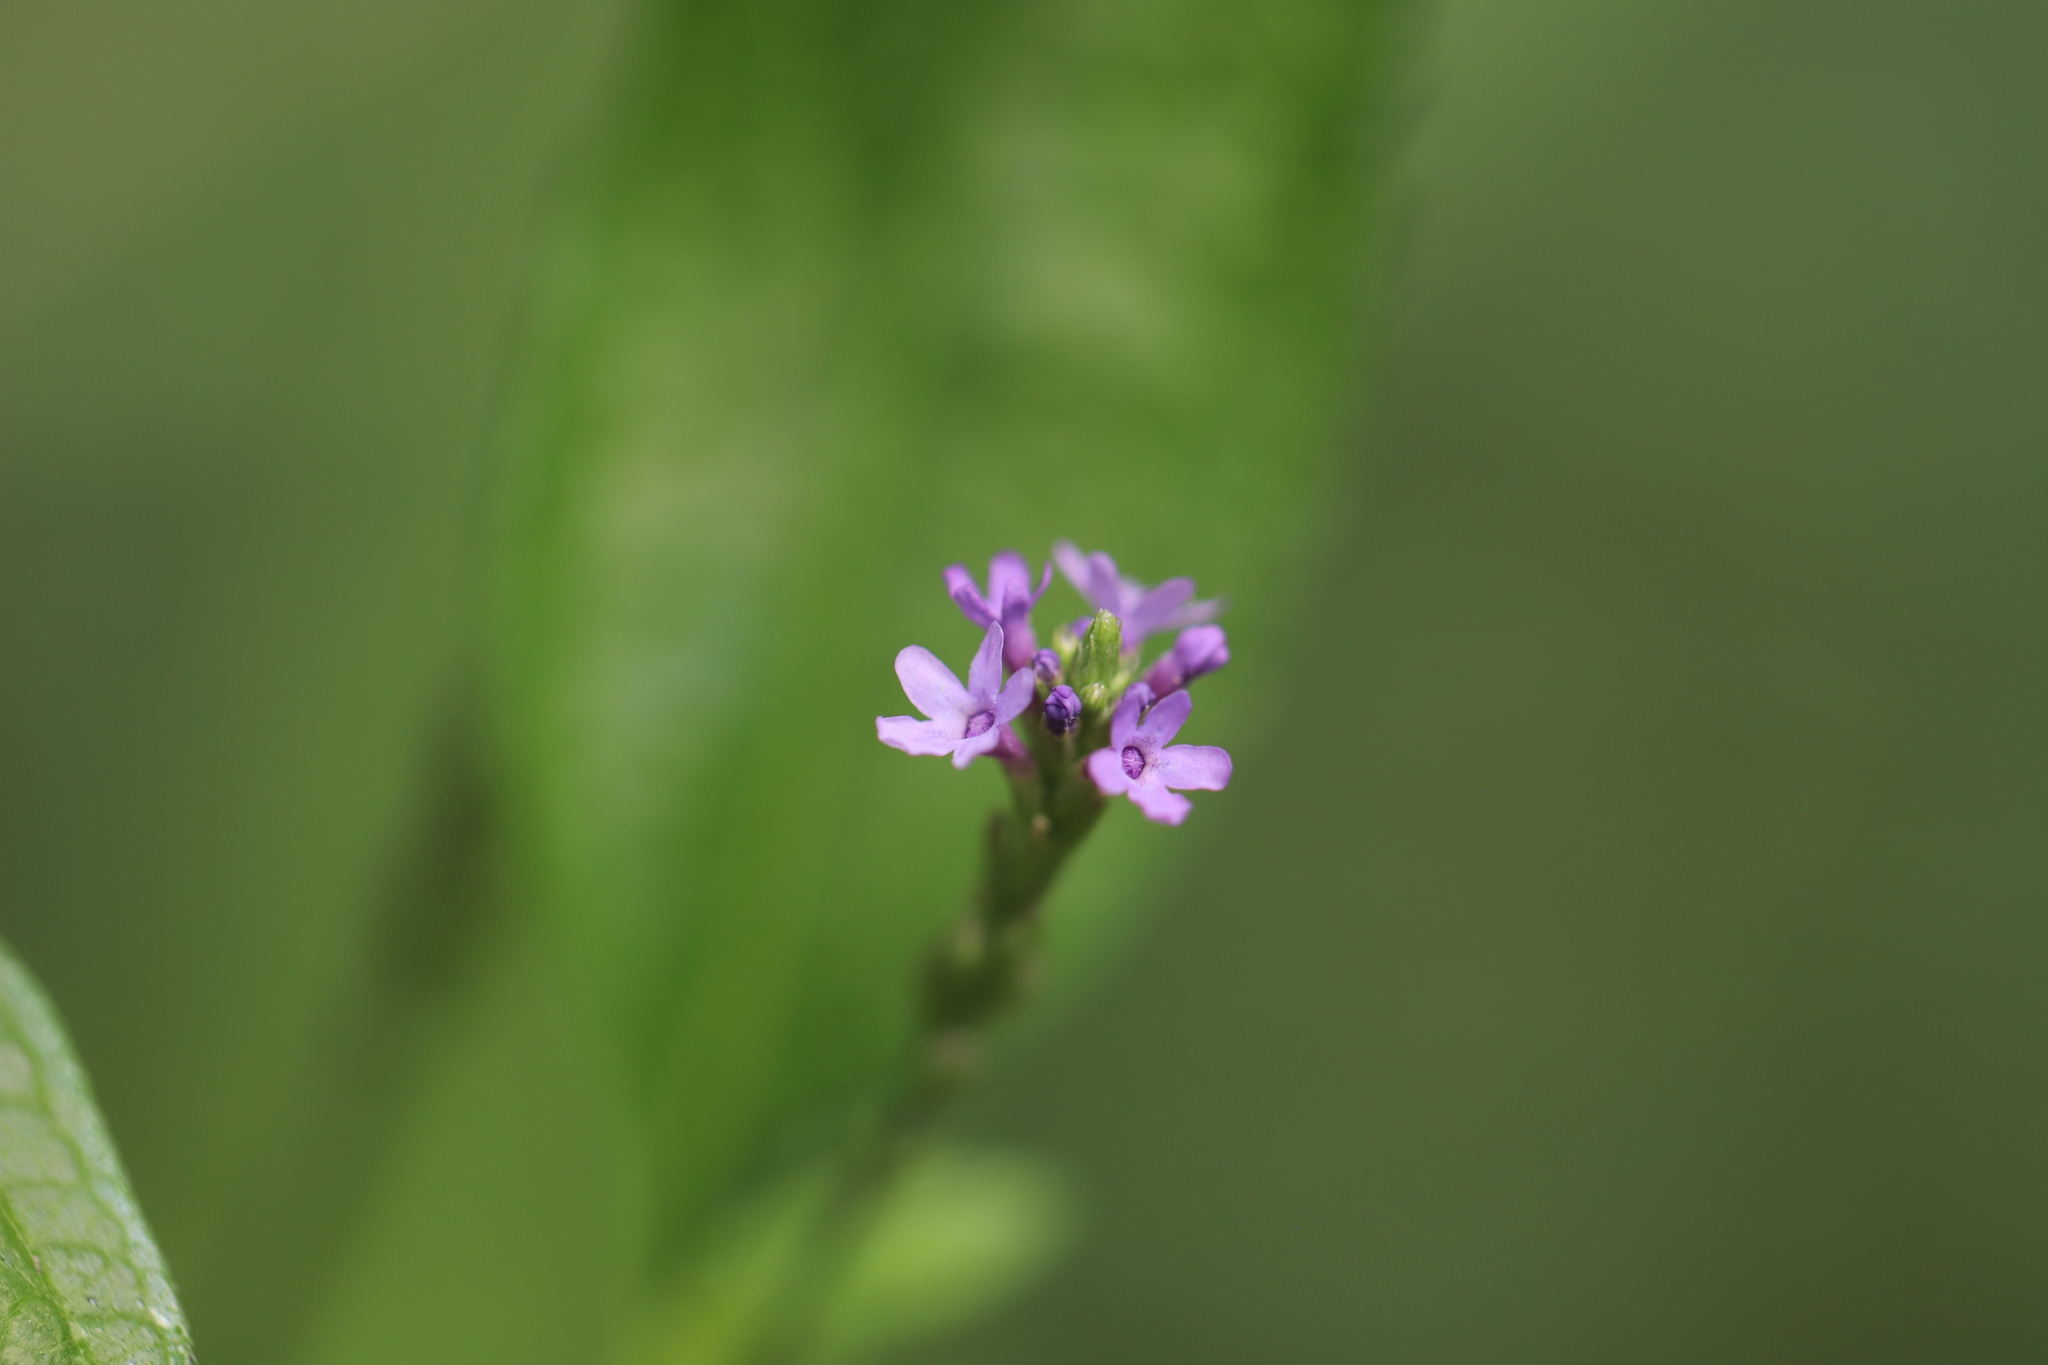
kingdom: Plantae
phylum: Tracheophyta
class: Magnoliopsida
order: Lamiales
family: Verbenaceae
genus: Verbena
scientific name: Verbena hastata
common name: American blue vervain
